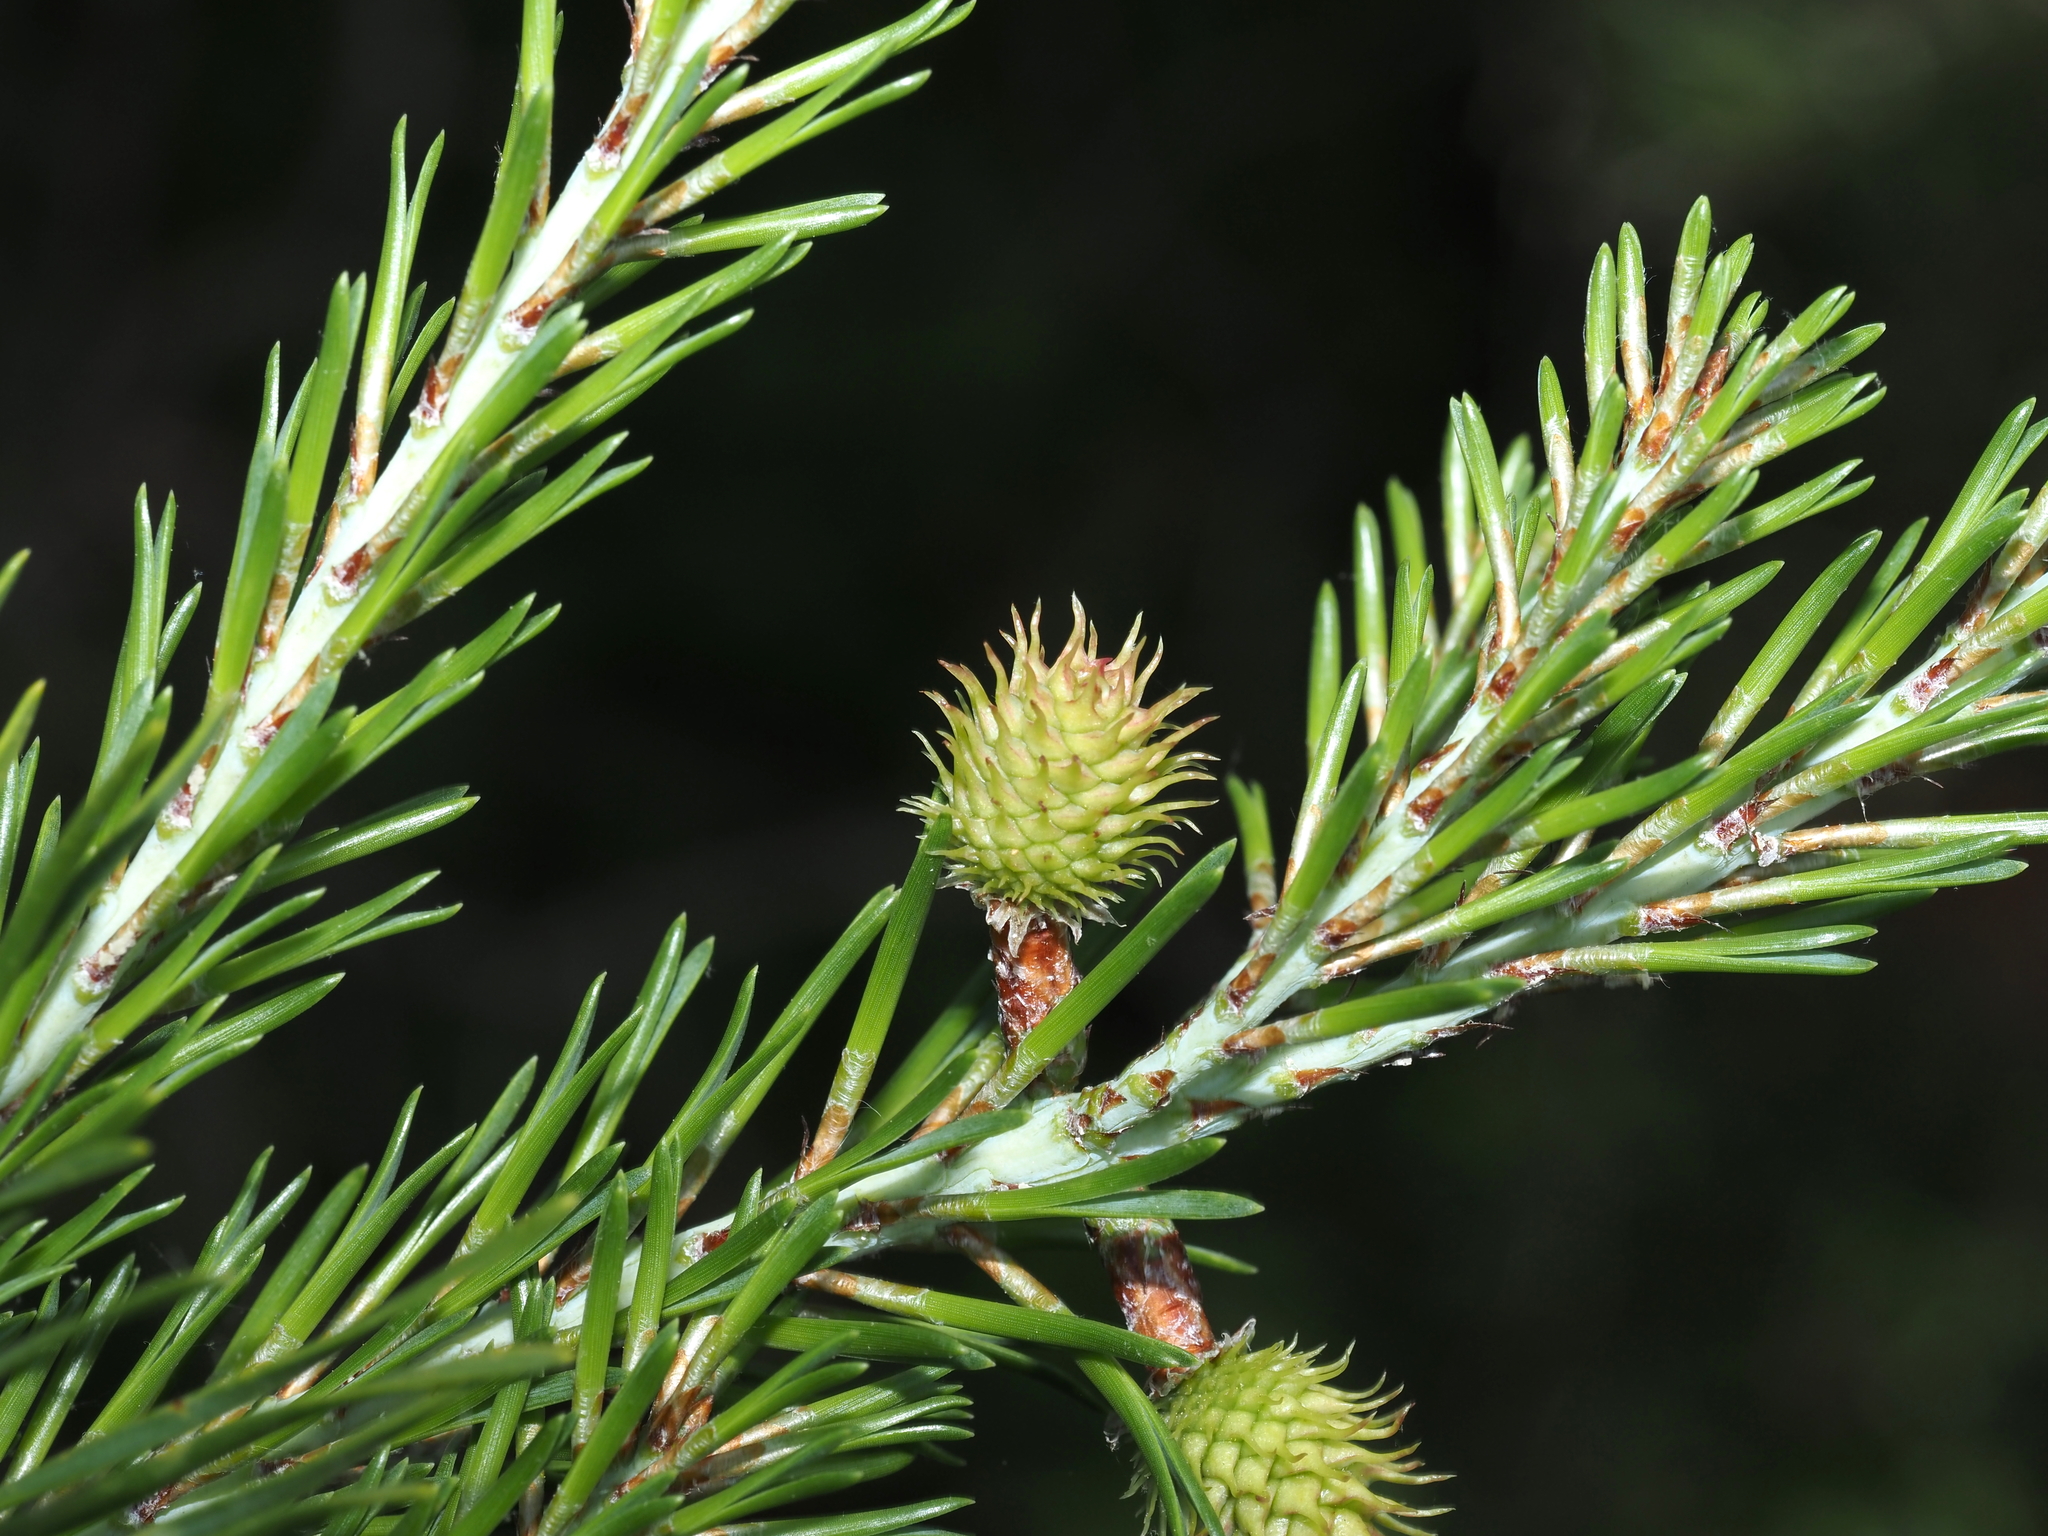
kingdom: Plantae
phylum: Tracheophyta
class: Pinopsida
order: Pinales
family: Pinaceae
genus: Pinus
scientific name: Pinus virginiana
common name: Scrub pine
